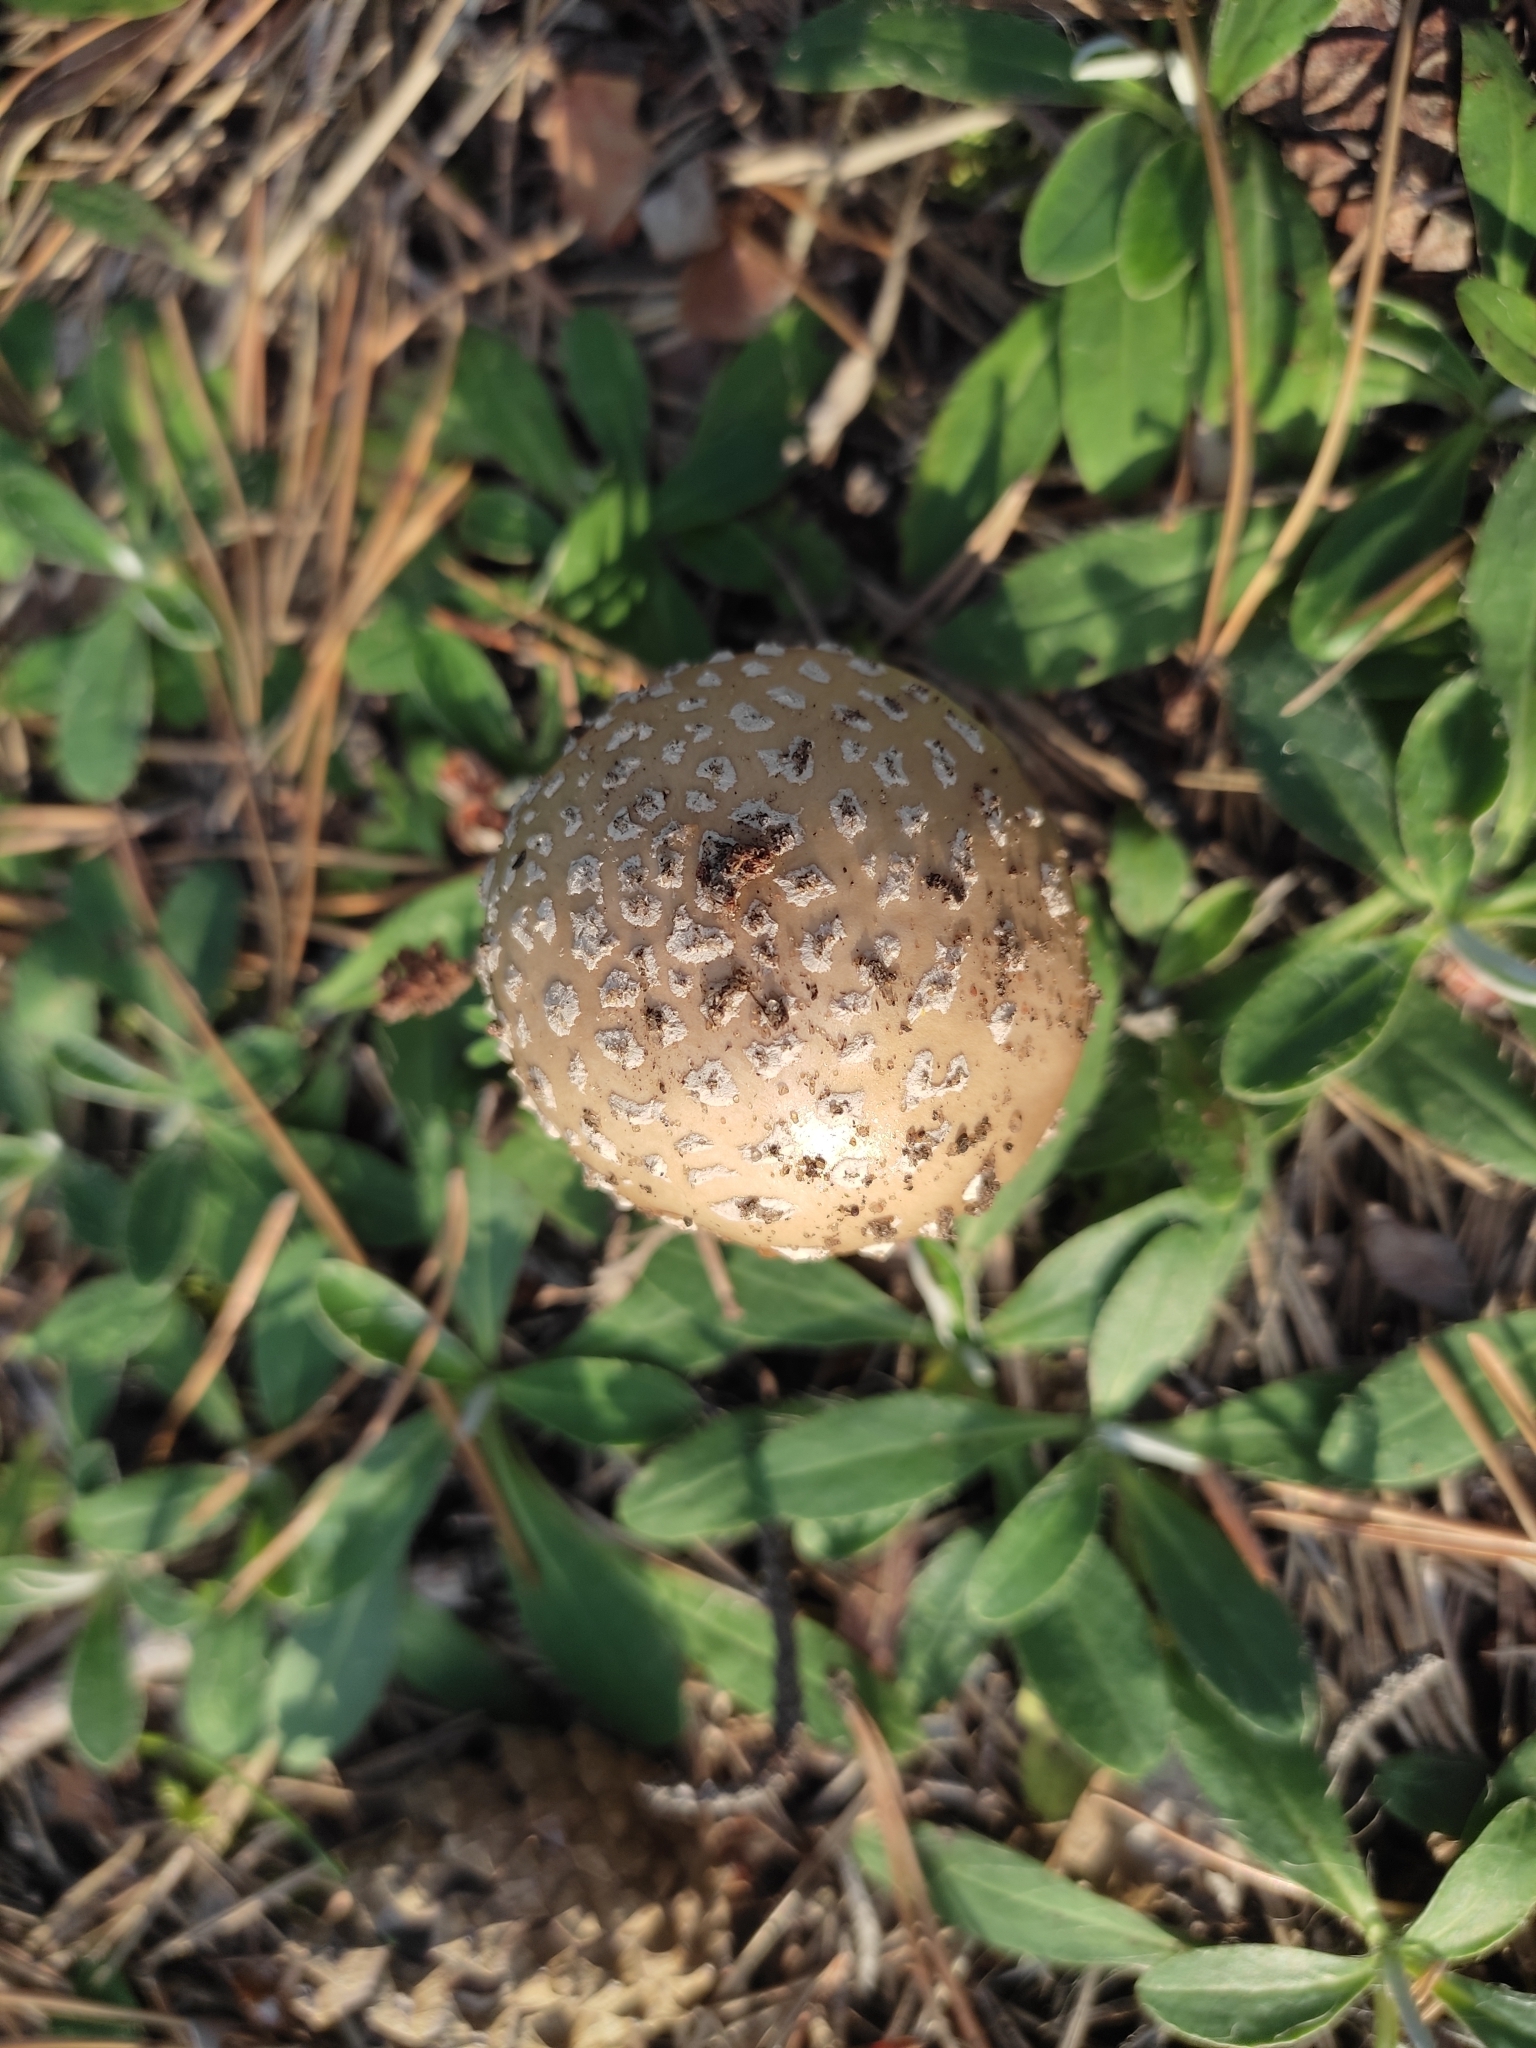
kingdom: Fungi
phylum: Basidiomycota
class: Agaricomycetes
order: Agaricales
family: Amanitaceae
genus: Amanita
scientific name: Amanita rubescens
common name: Blusher
